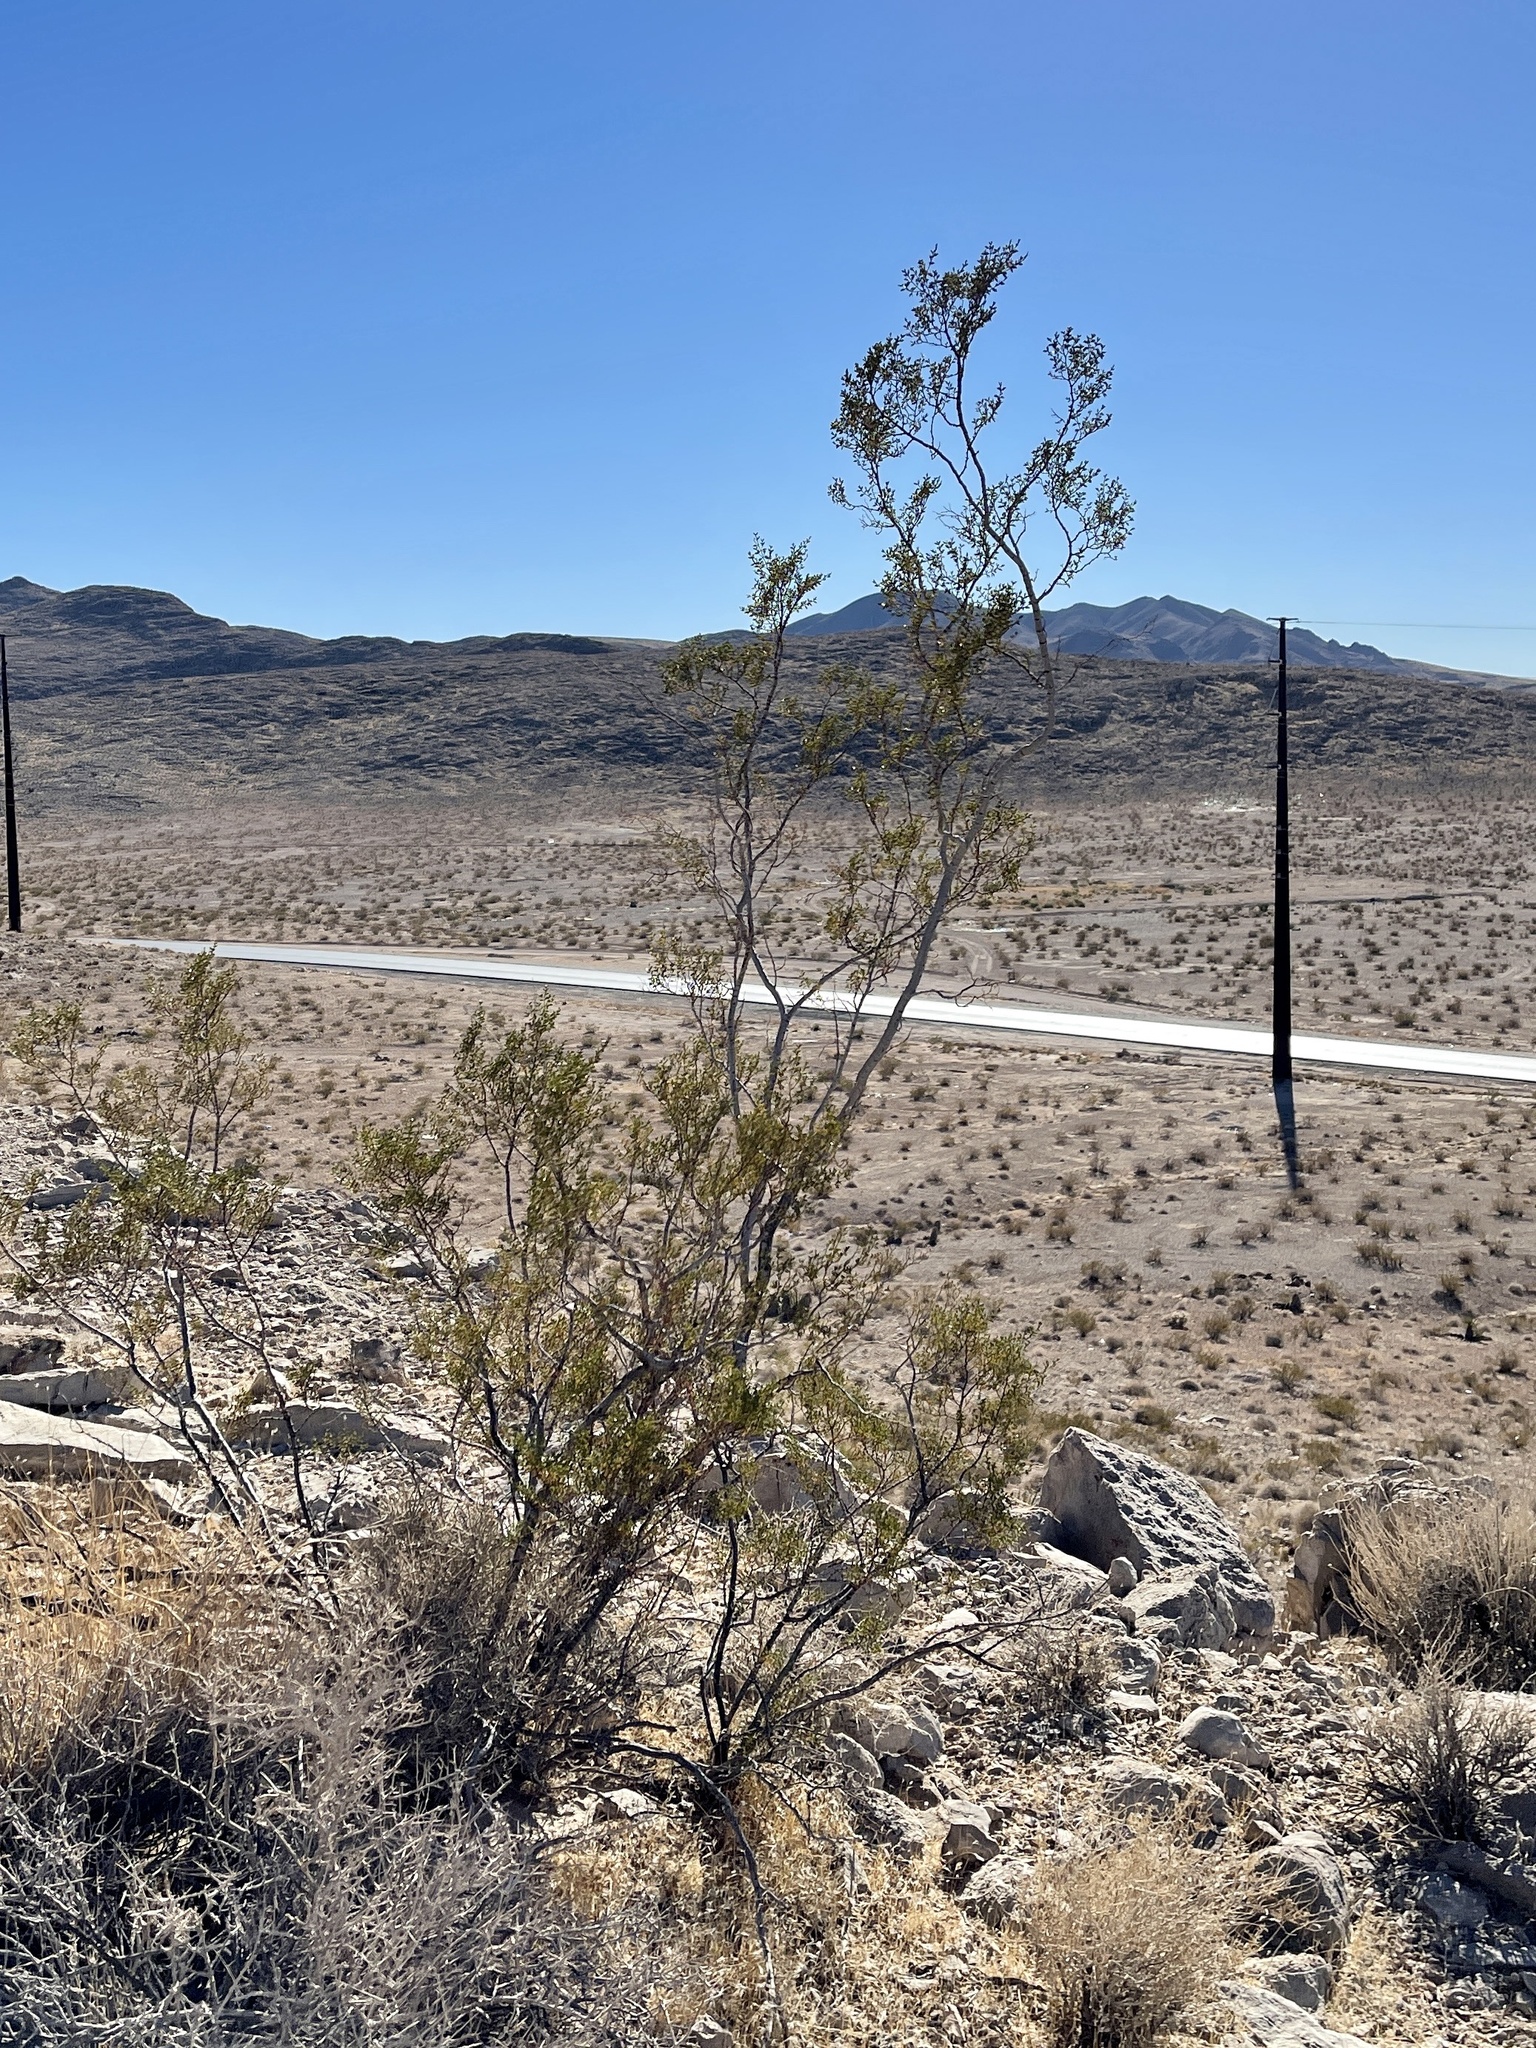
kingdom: Plantae
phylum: Tracheophyta
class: Magnoliopsida
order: Zygophyllales
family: Zygophyllaceae
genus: Larrea
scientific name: Larrea tridentata
